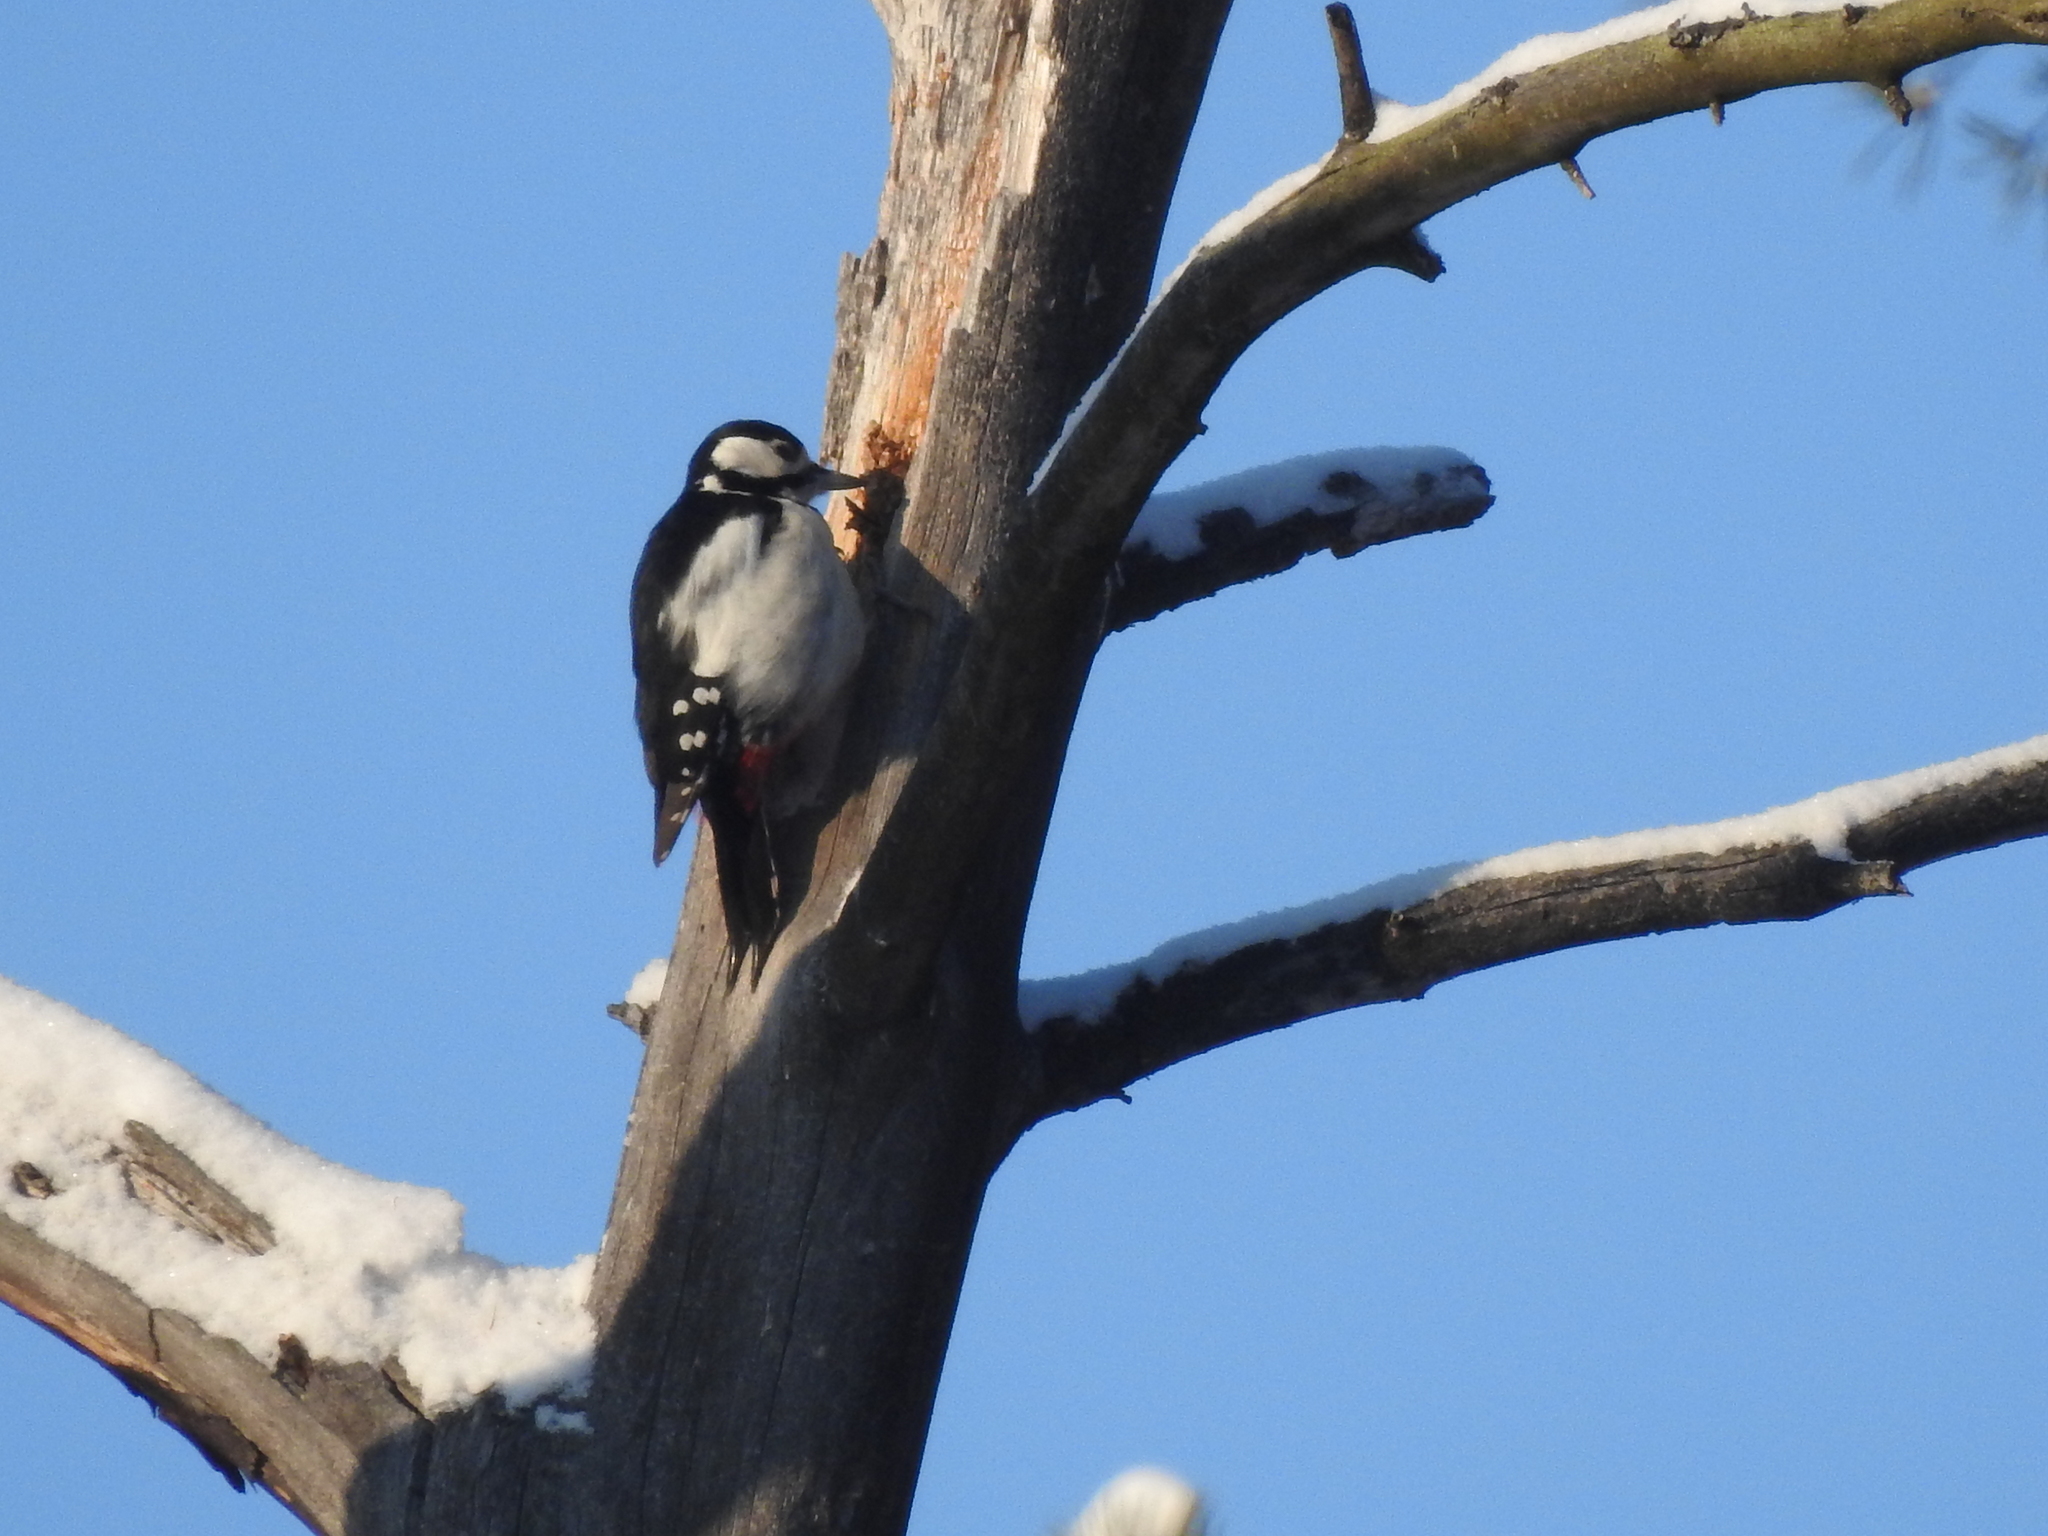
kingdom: Animalia
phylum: Chordata
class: Aves
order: Piciformes
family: Picidae
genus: Dendrocopos
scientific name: Dendrocopos major
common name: Great spotted woodpecker
